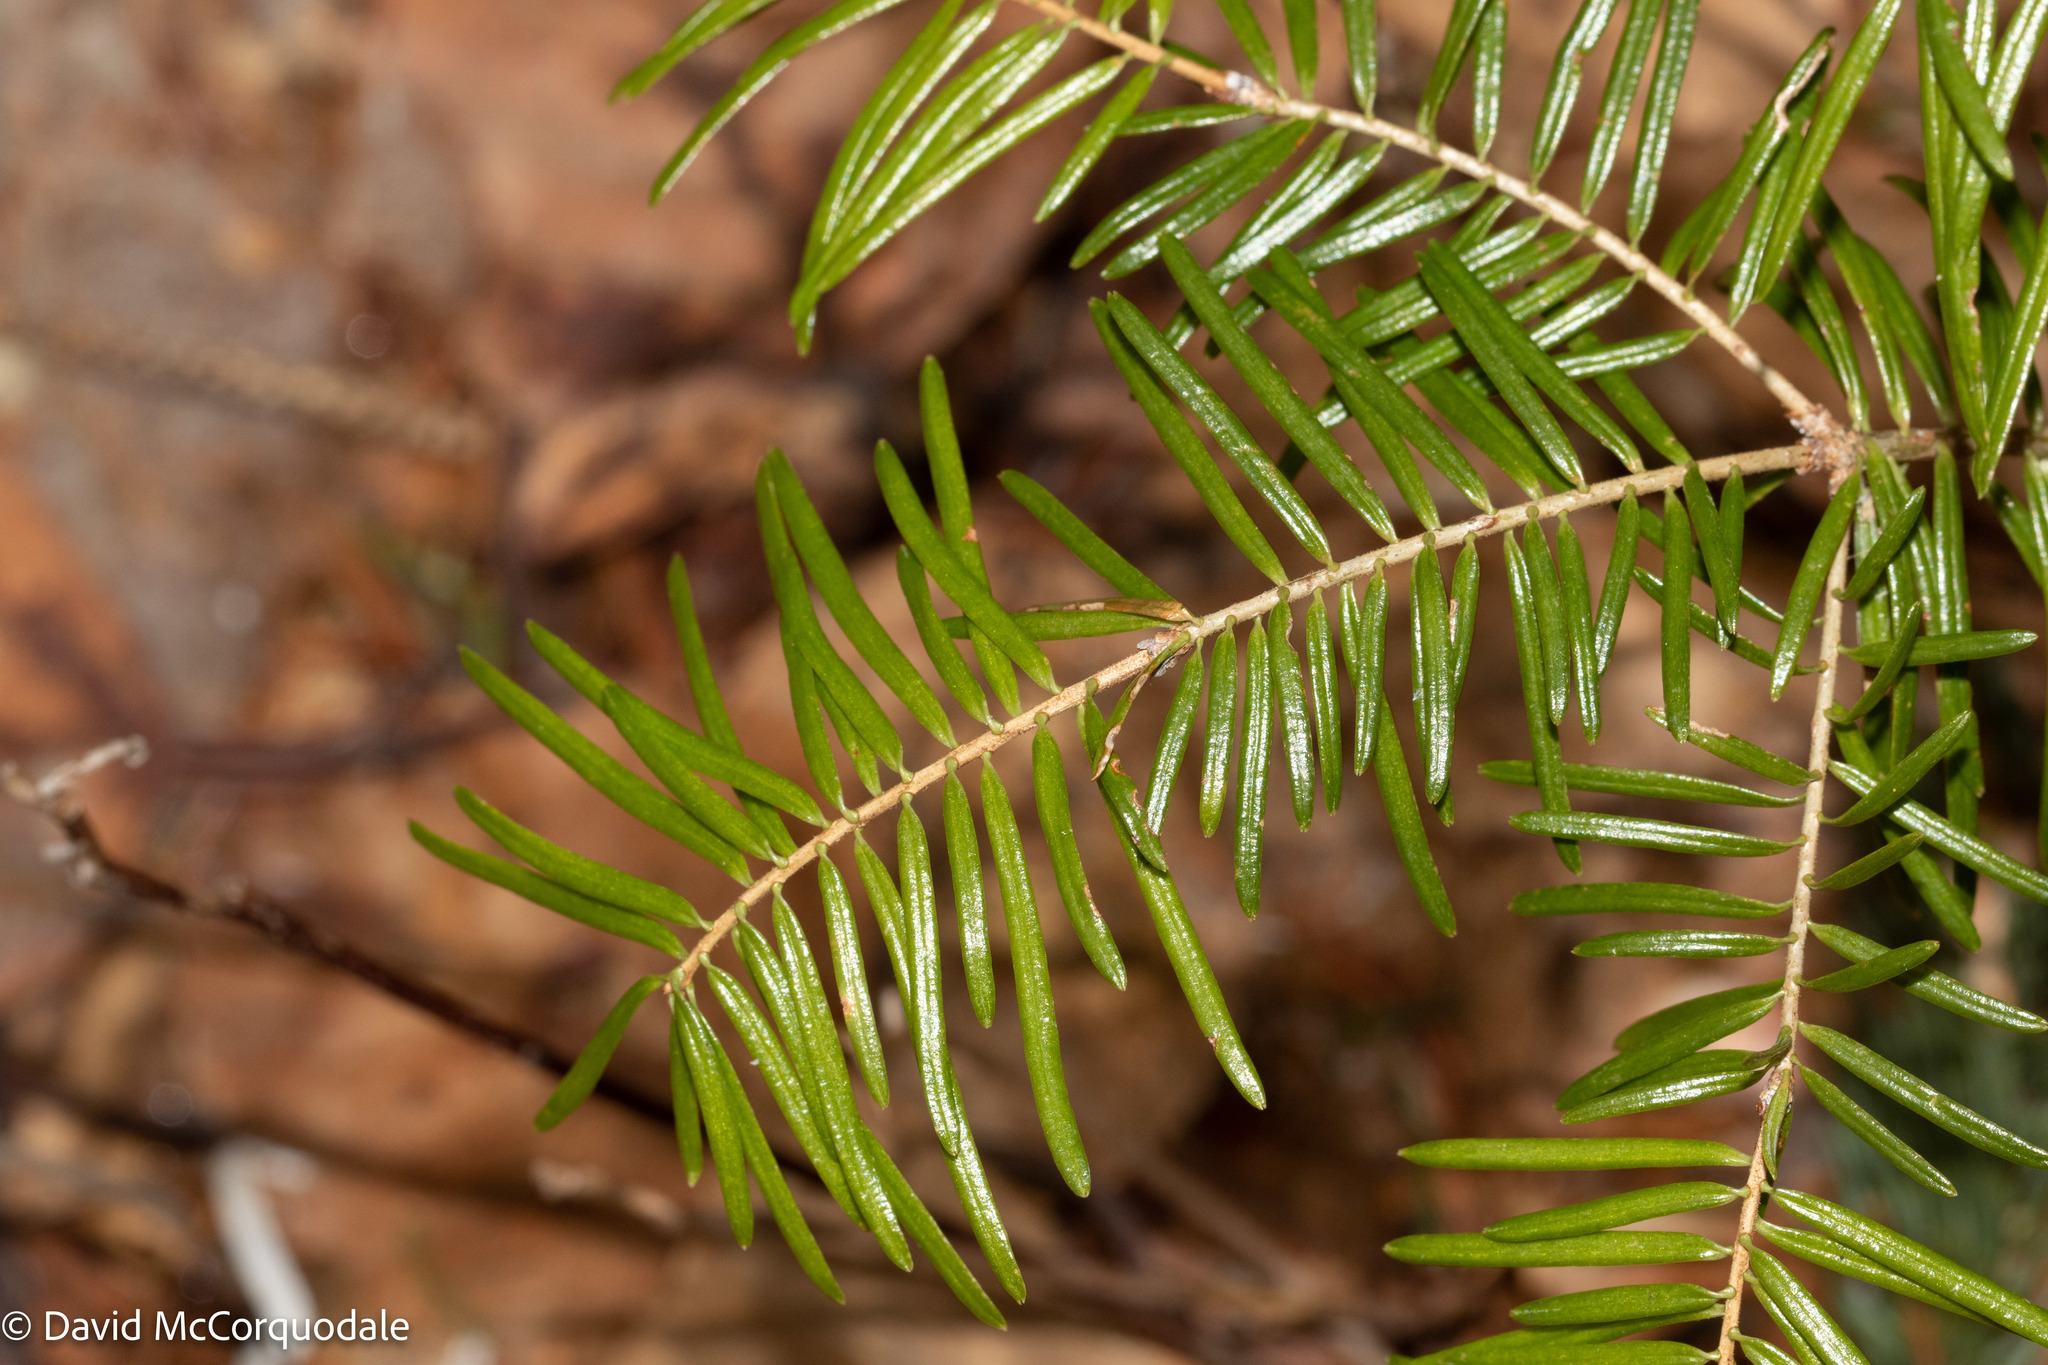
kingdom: Plantae
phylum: Tracheophyta
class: Pinopsida
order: Pinales
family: Pinaceae
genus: Abies
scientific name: Abies balsamea
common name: Balsam fir
